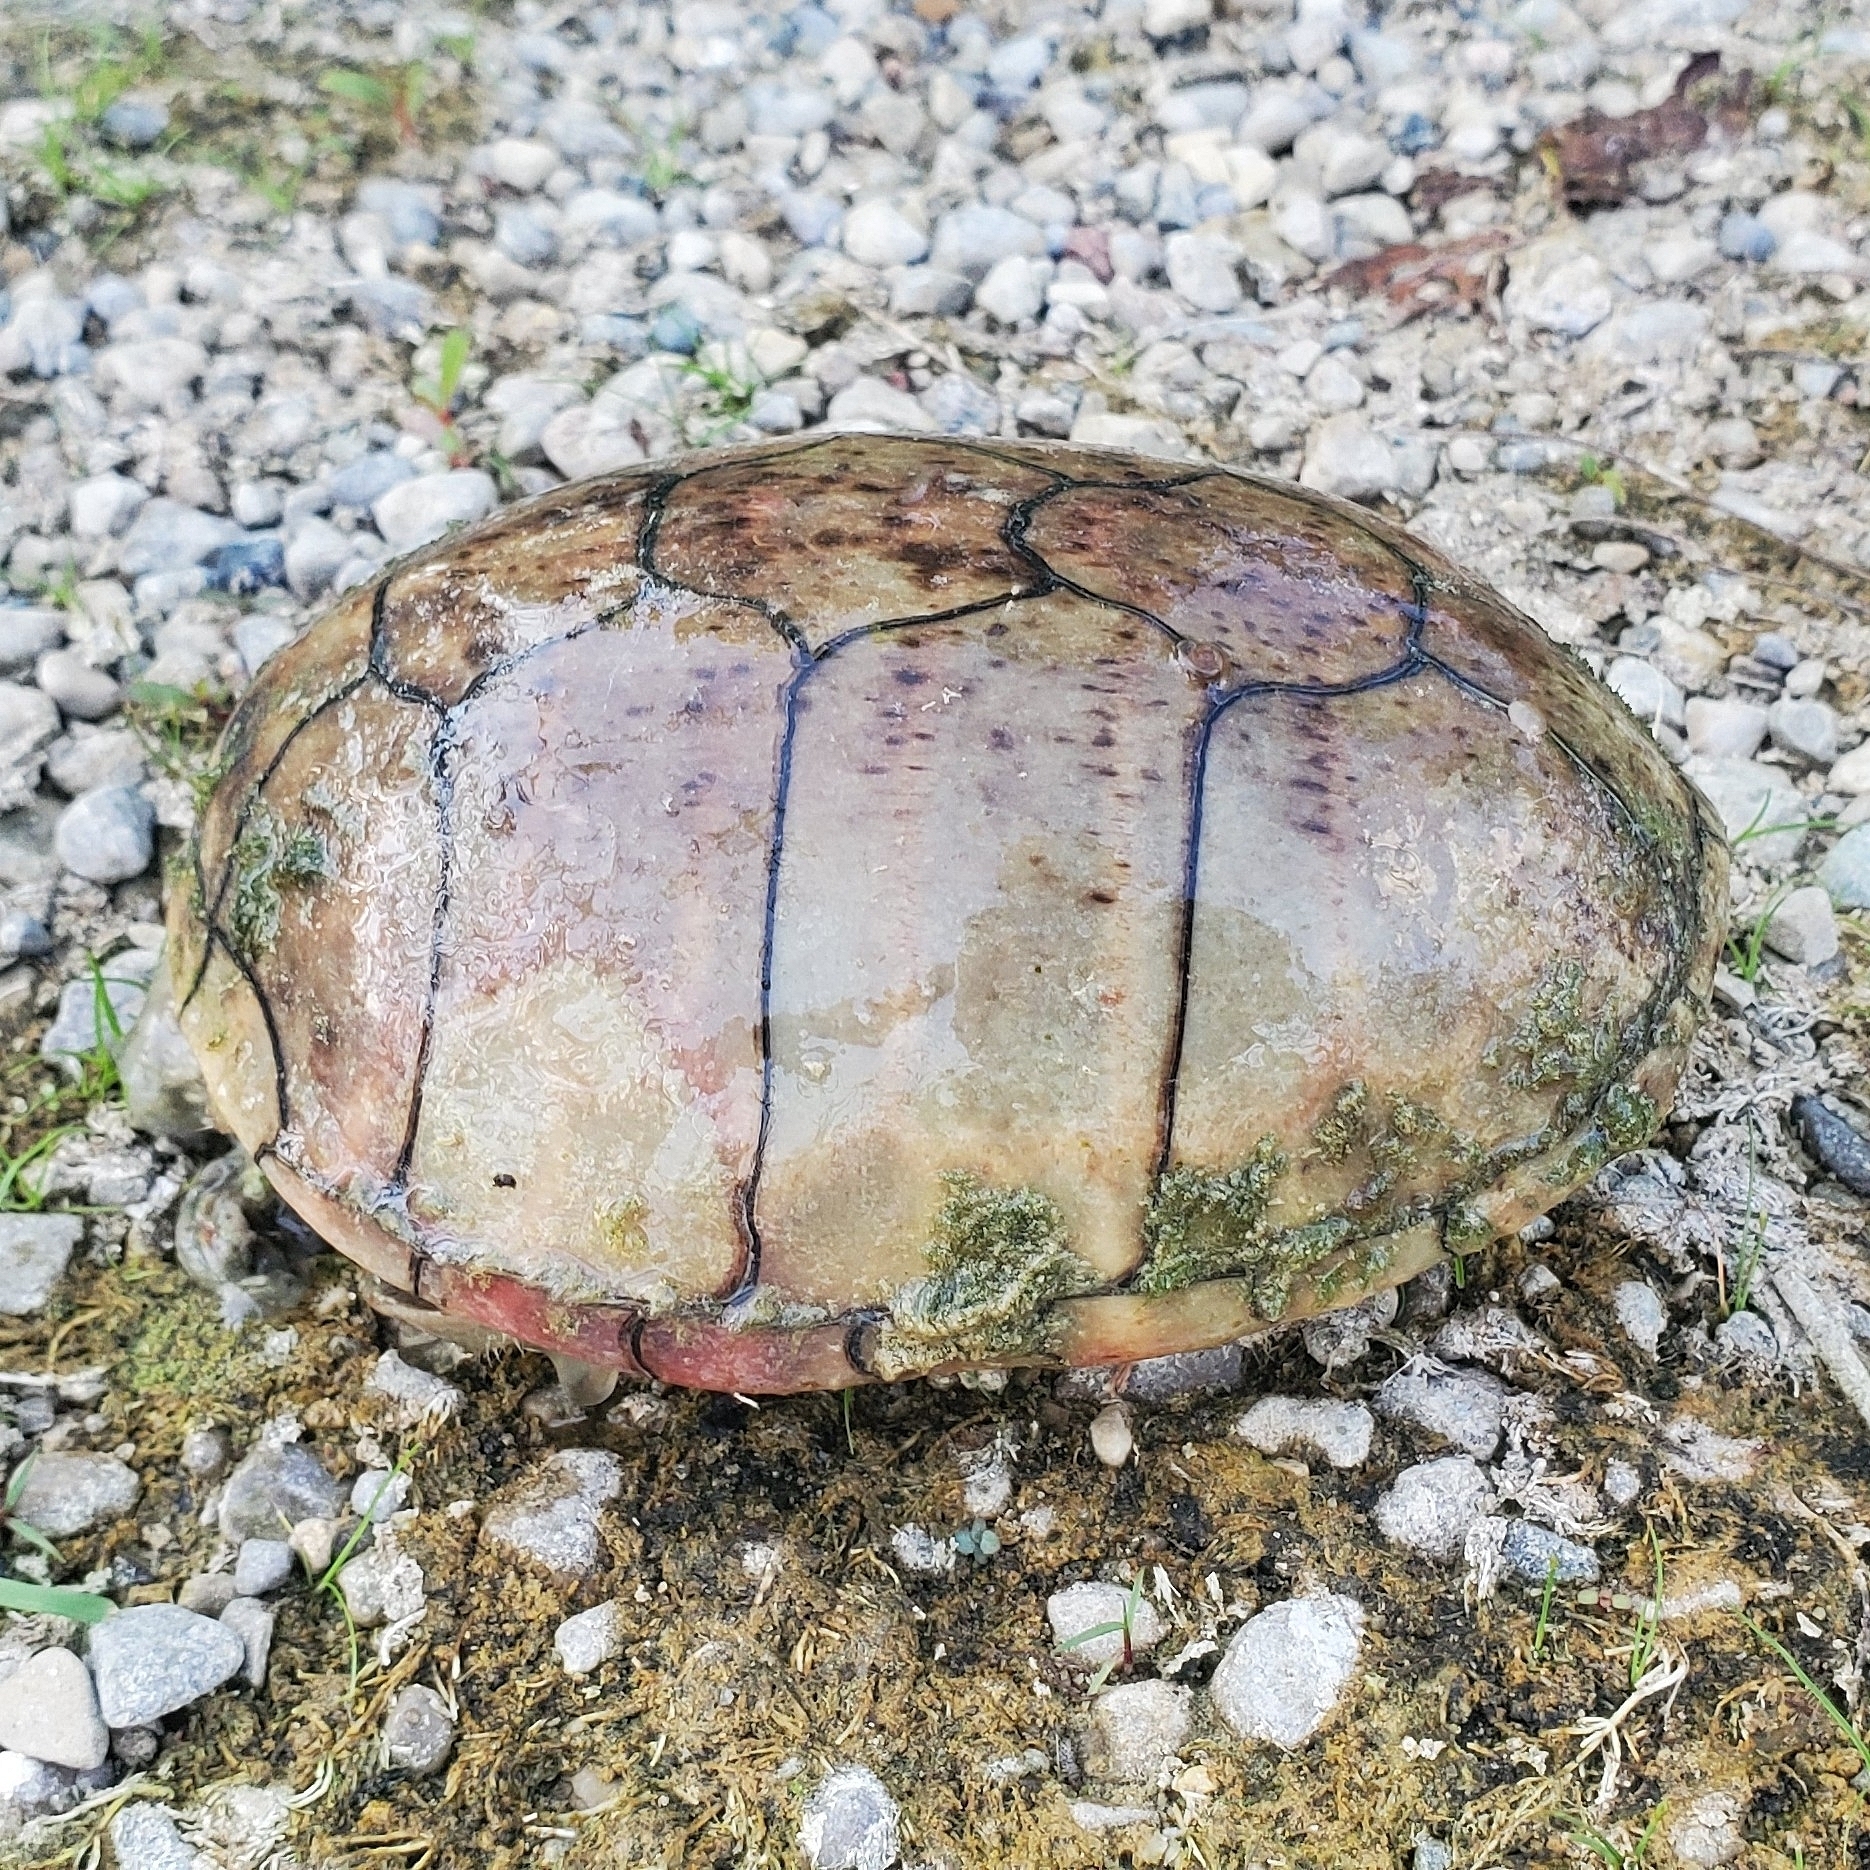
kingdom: Animalia
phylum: Chordata
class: Testudines
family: Kinosternidae
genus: Sternotherus
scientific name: Sternotherus odoratus
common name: Common musk turtle
